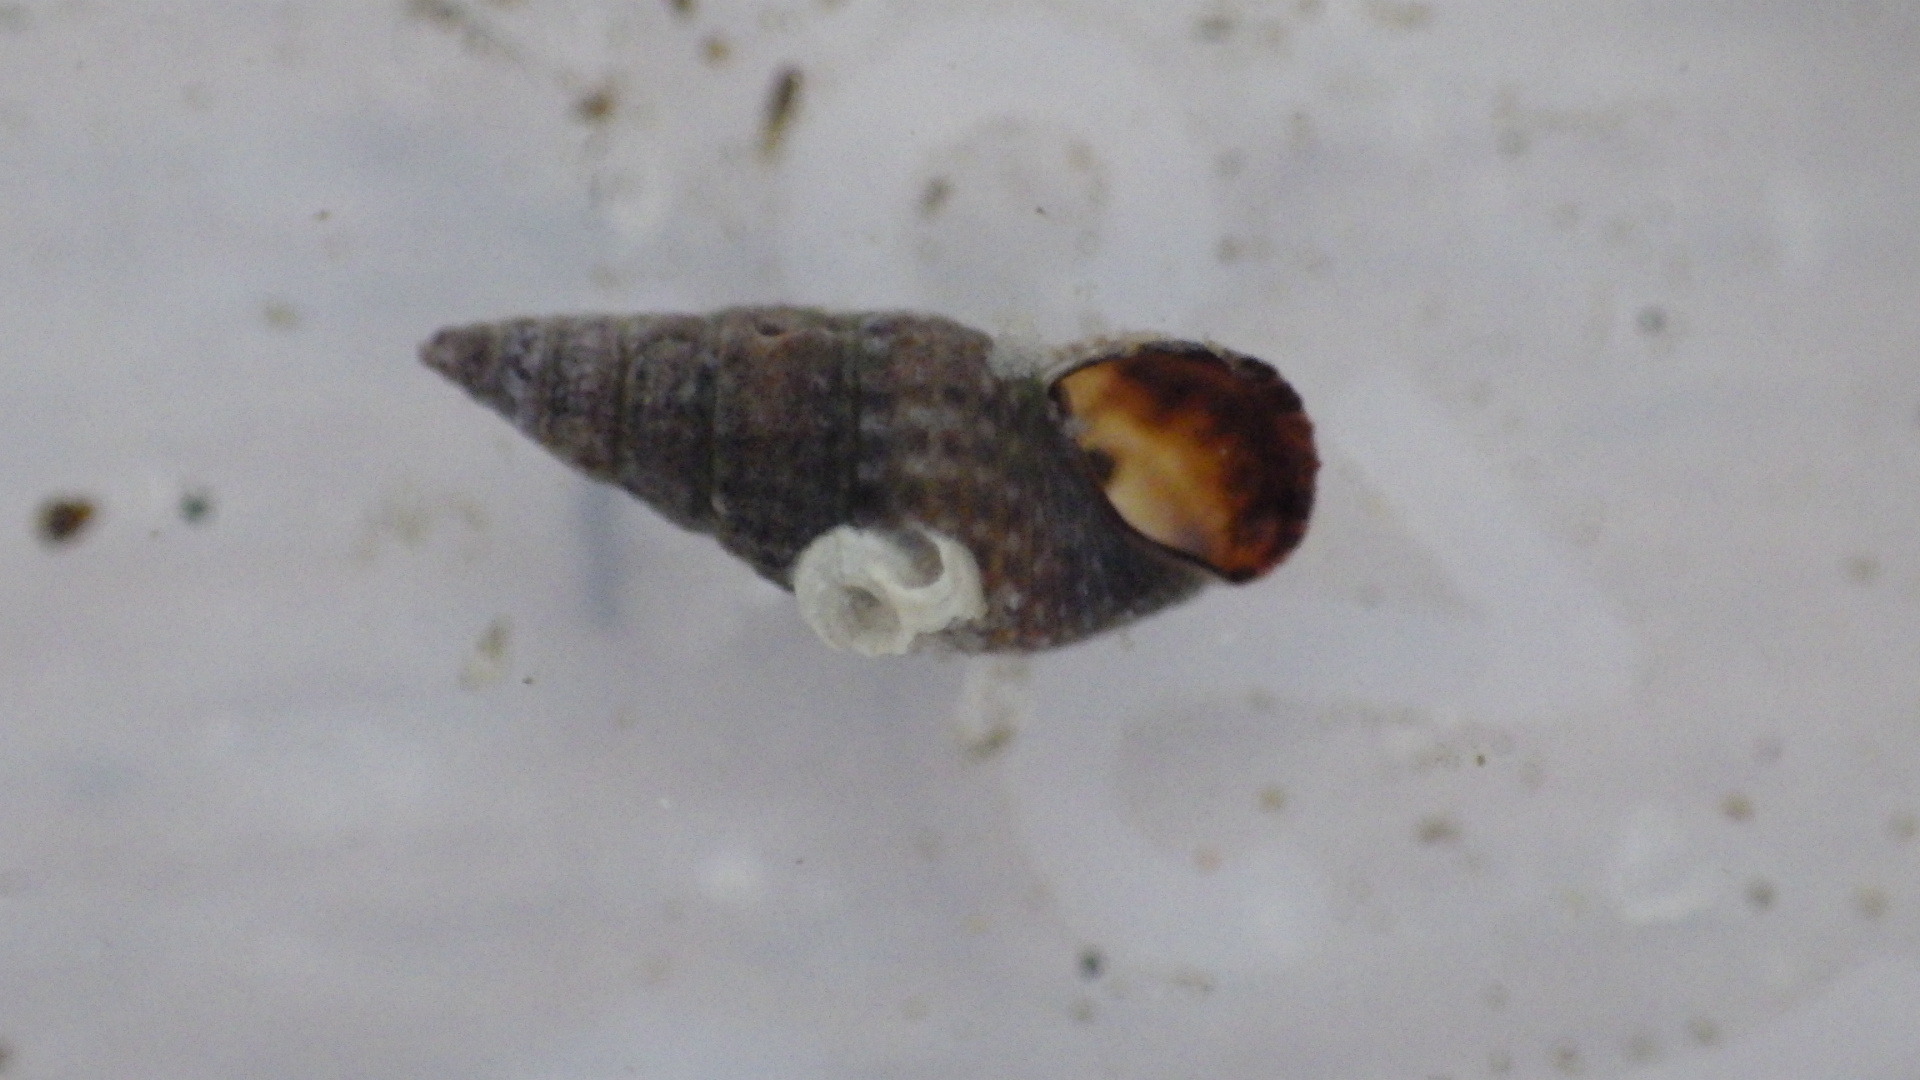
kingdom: Animalia
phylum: Mollusca
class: Gastropoda
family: Cerithiidae
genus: Bittiolum
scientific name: Bittiolum alternatum
